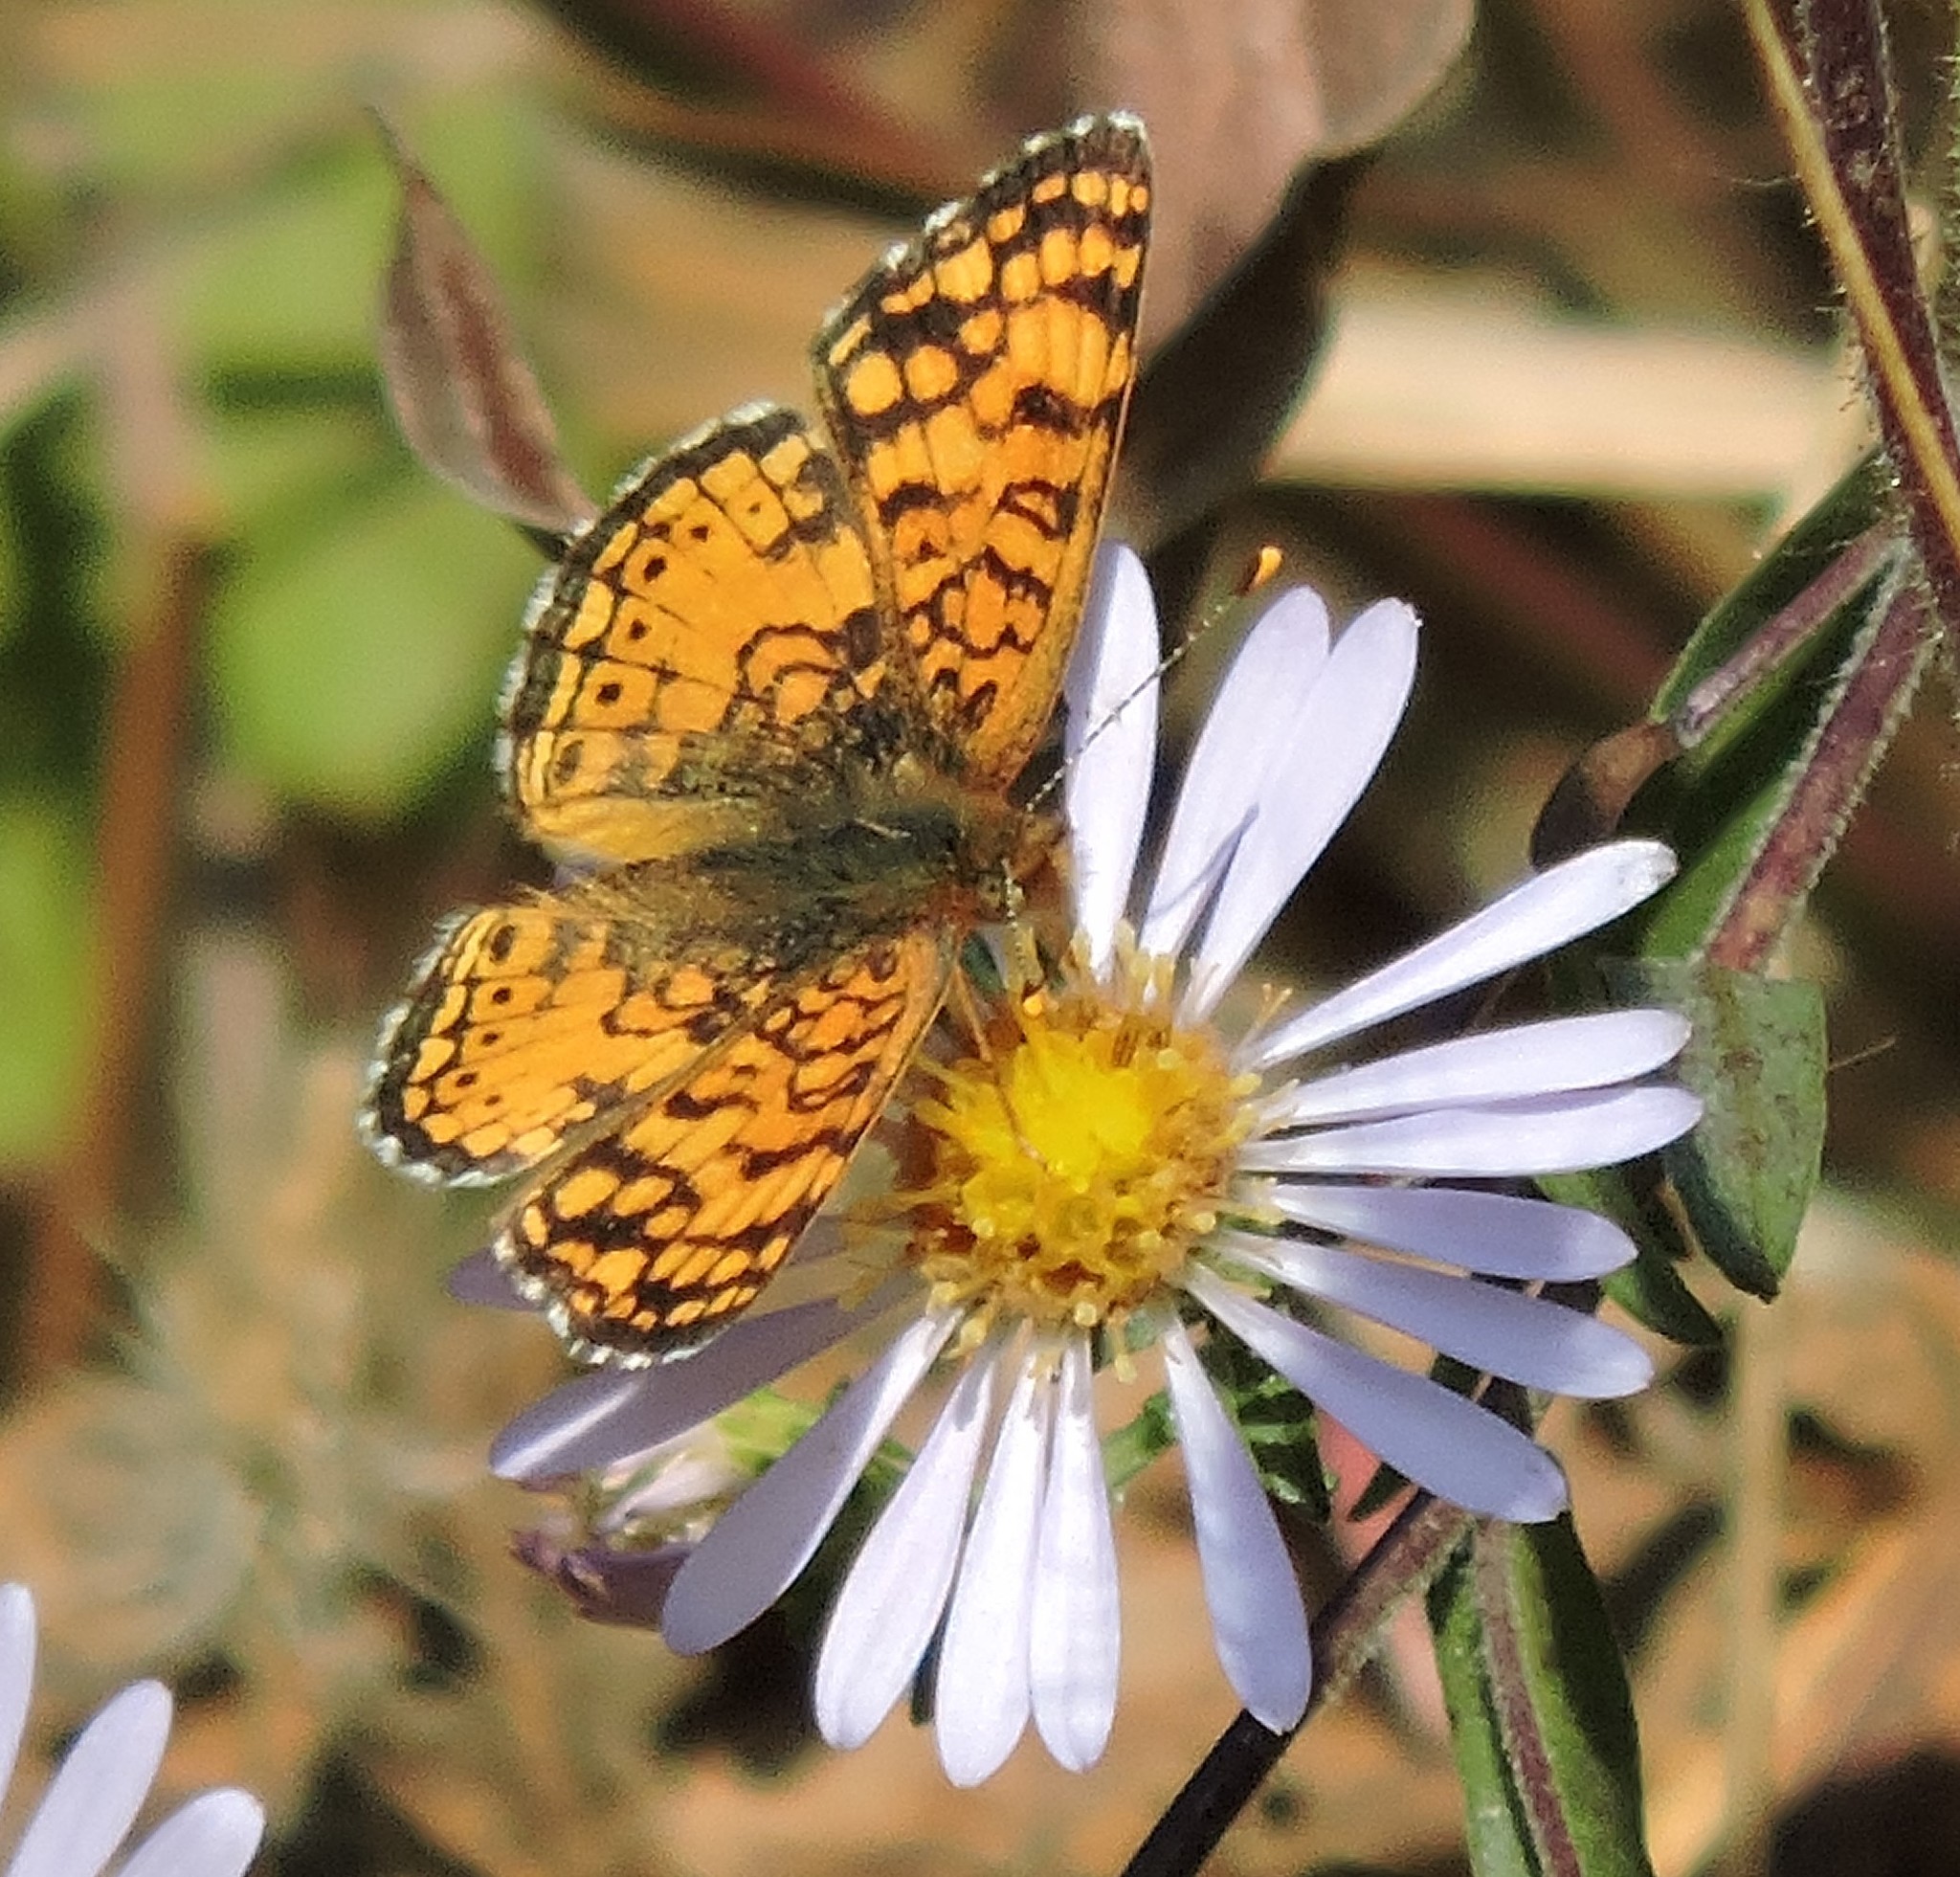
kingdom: Animalia
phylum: Arthropoda
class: Insecta
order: Lepidoptera
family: Nymphalidae
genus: Eresia
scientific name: Eresia aveyrona
